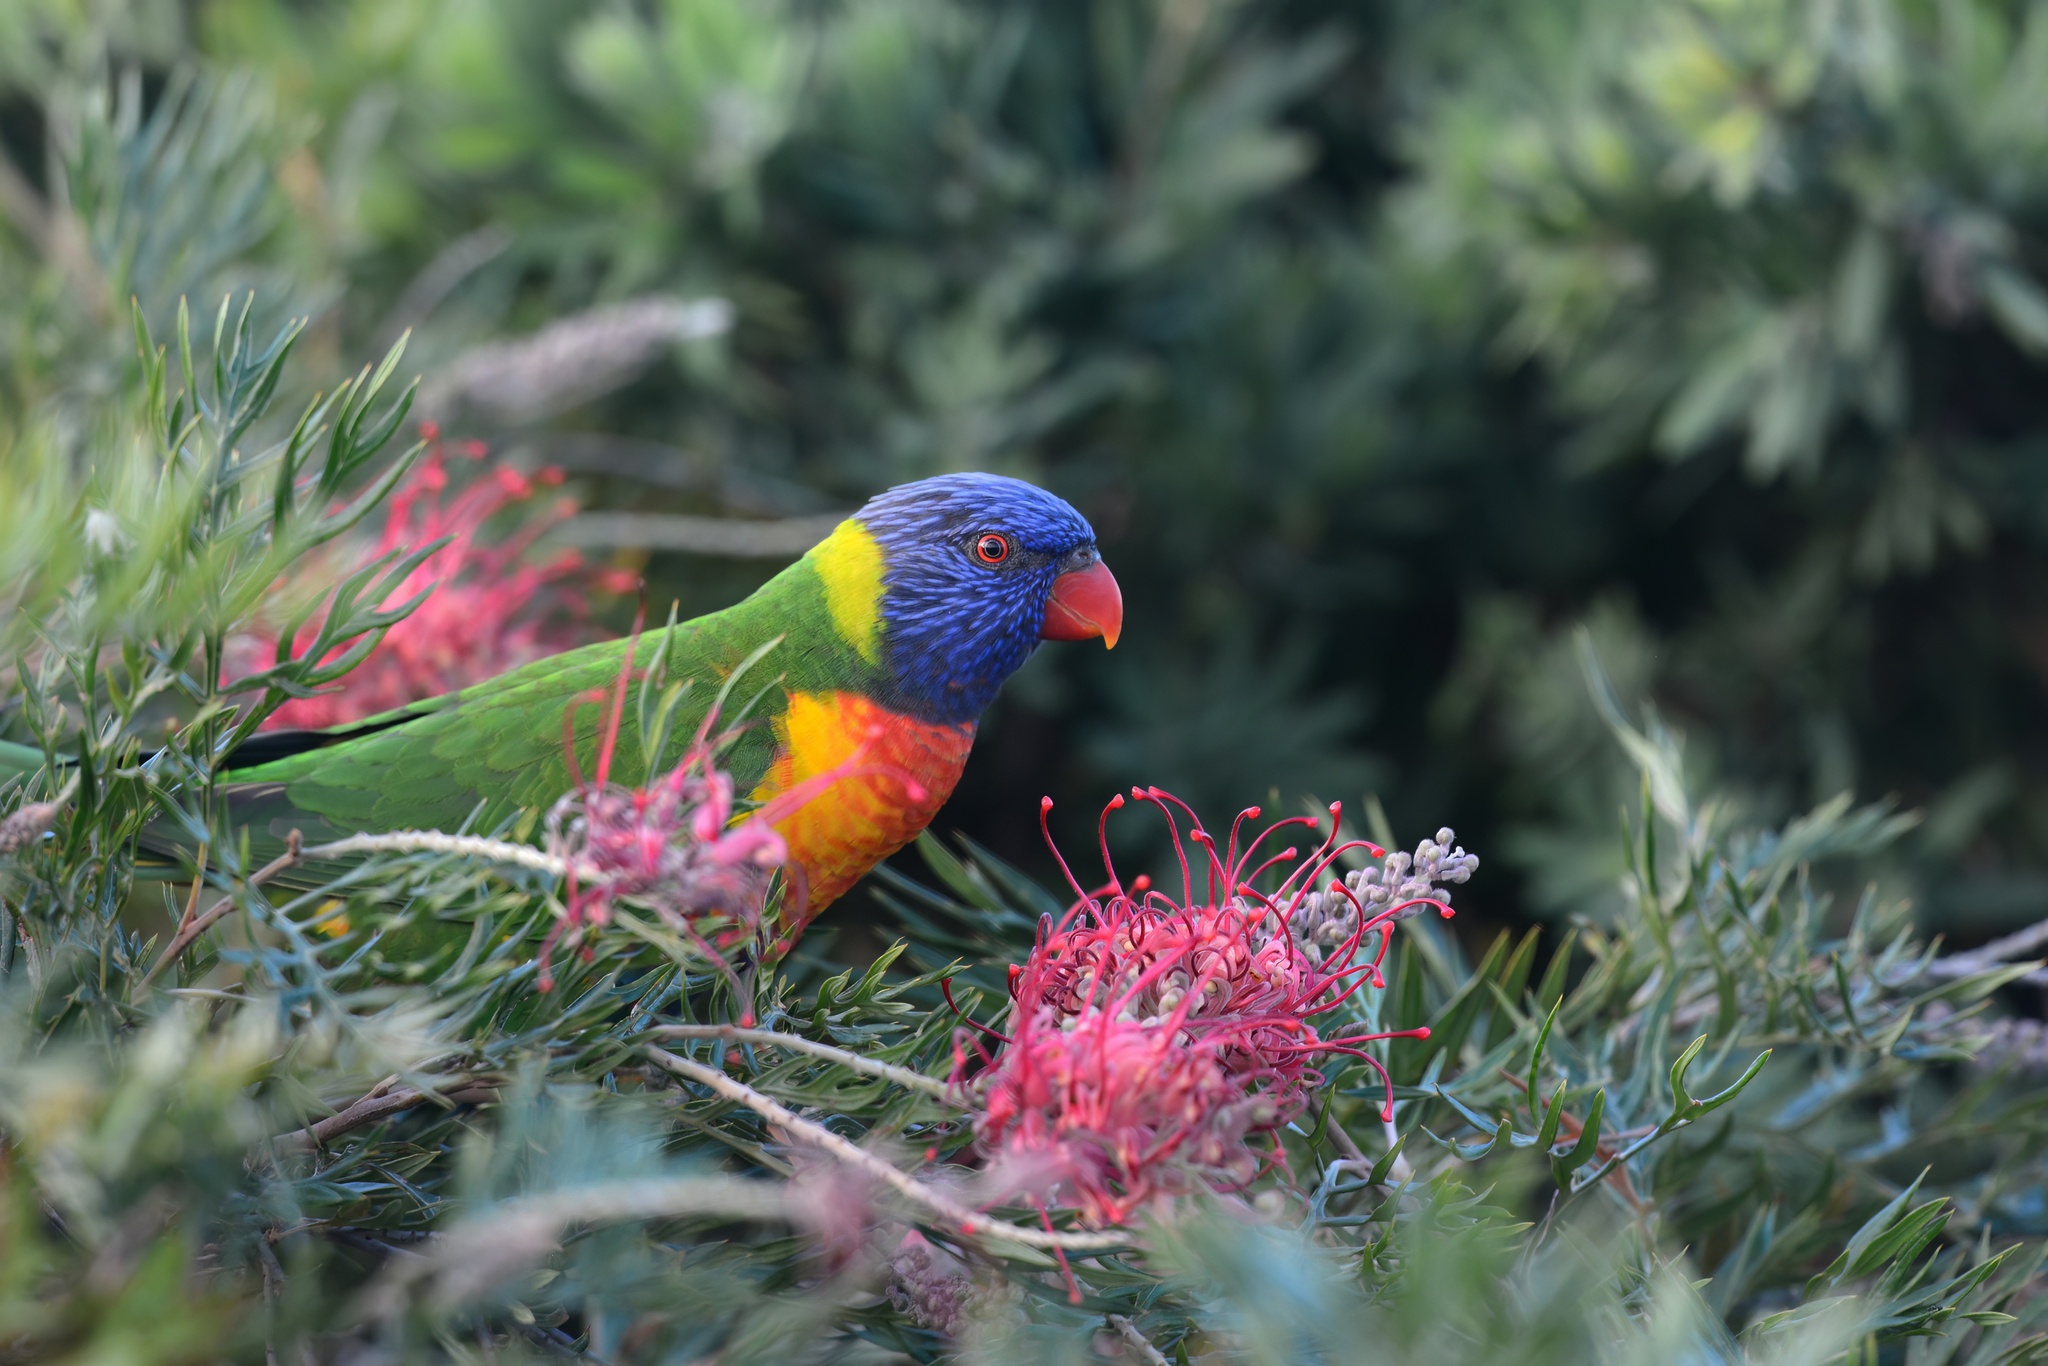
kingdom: Animalia
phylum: Chordata
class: Aves
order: Psittaciformes
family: Psittacidae
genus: Trichoglossus
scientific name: Trichoglossus haematodus
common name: Coconut lorikeet
